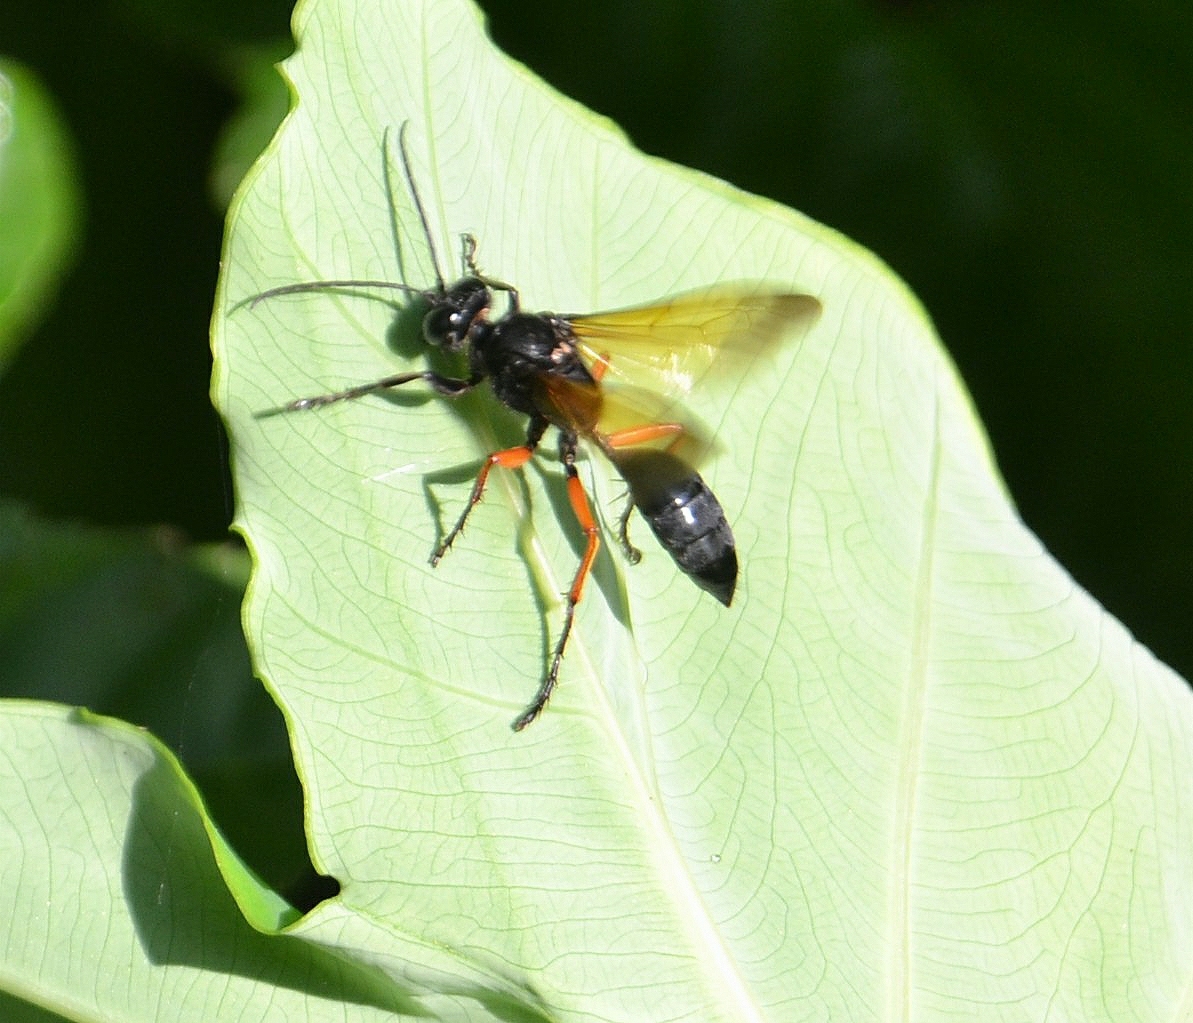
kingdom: Animalia
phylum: Arthropoda
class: Insecta
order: Hymenoptera
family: Sphecidae
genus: Sphex
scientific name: Sphex subtruncatus
